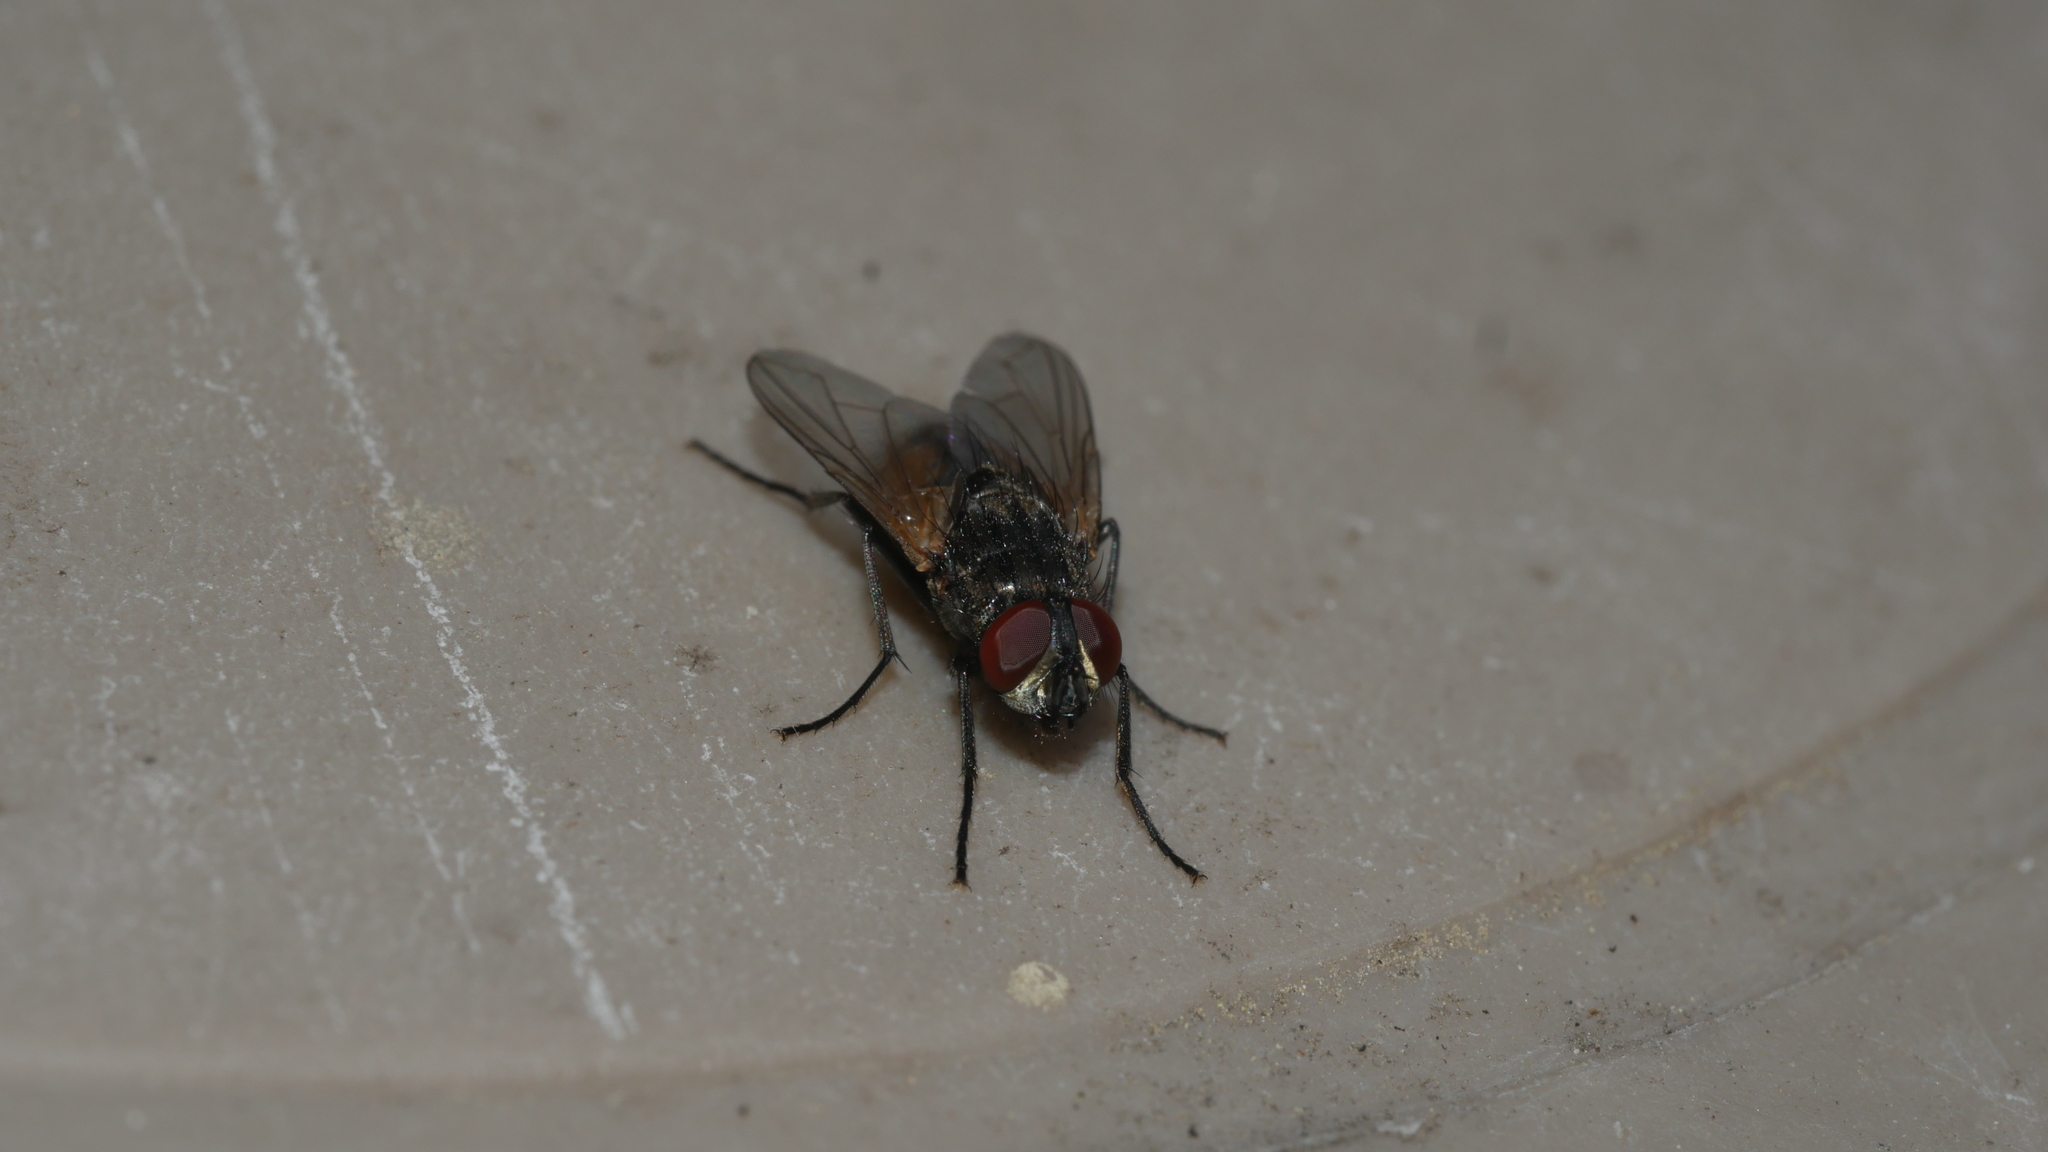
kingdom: Animalia
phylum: Arthropoda
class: Insecta
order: Diptera
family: Muscidae
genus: Musca
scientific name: Musca domestica
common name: House fly
